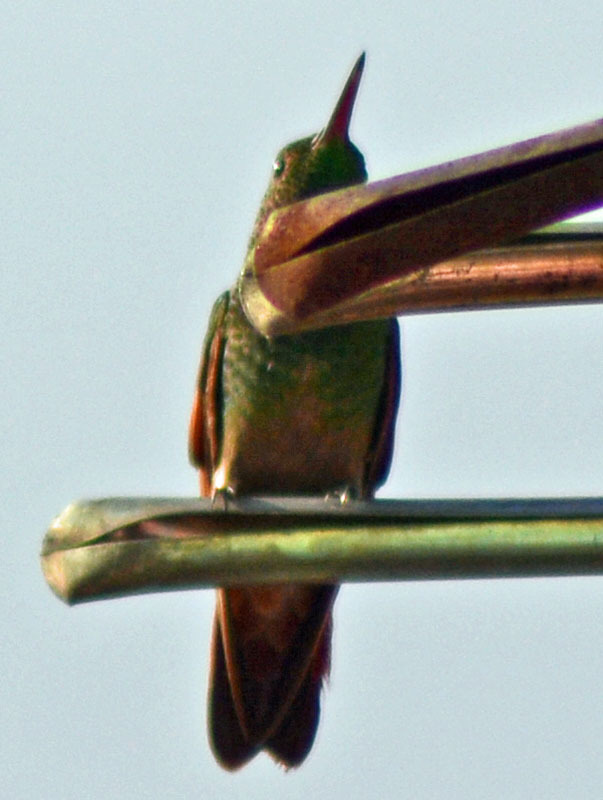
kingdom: Animalia
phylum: Chordata
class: Aves
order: Apodiformes
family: Trochilidae
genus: Saucerottia
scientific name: Saucerottia beryllina
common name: Berylline hummingbird
